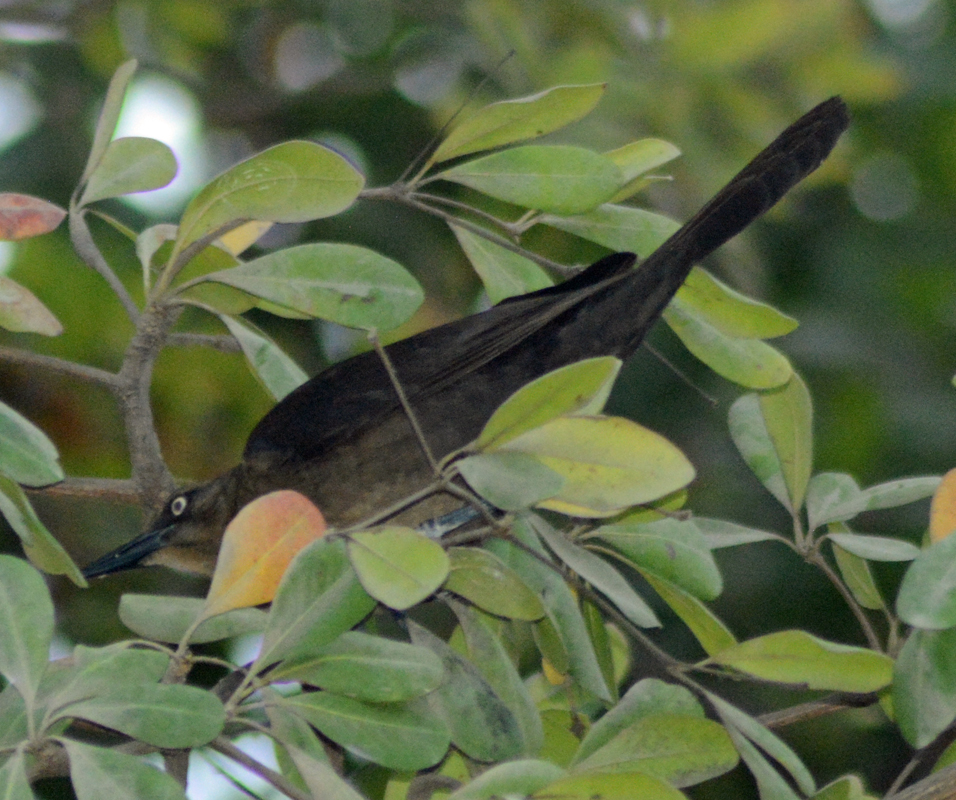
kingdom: Animalia
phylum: Chordata
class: Aves
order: Passeriformes
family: Icteridae
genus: Quiscalus
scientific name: Quiscalus mexicanus
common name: Great-tailed grackle
